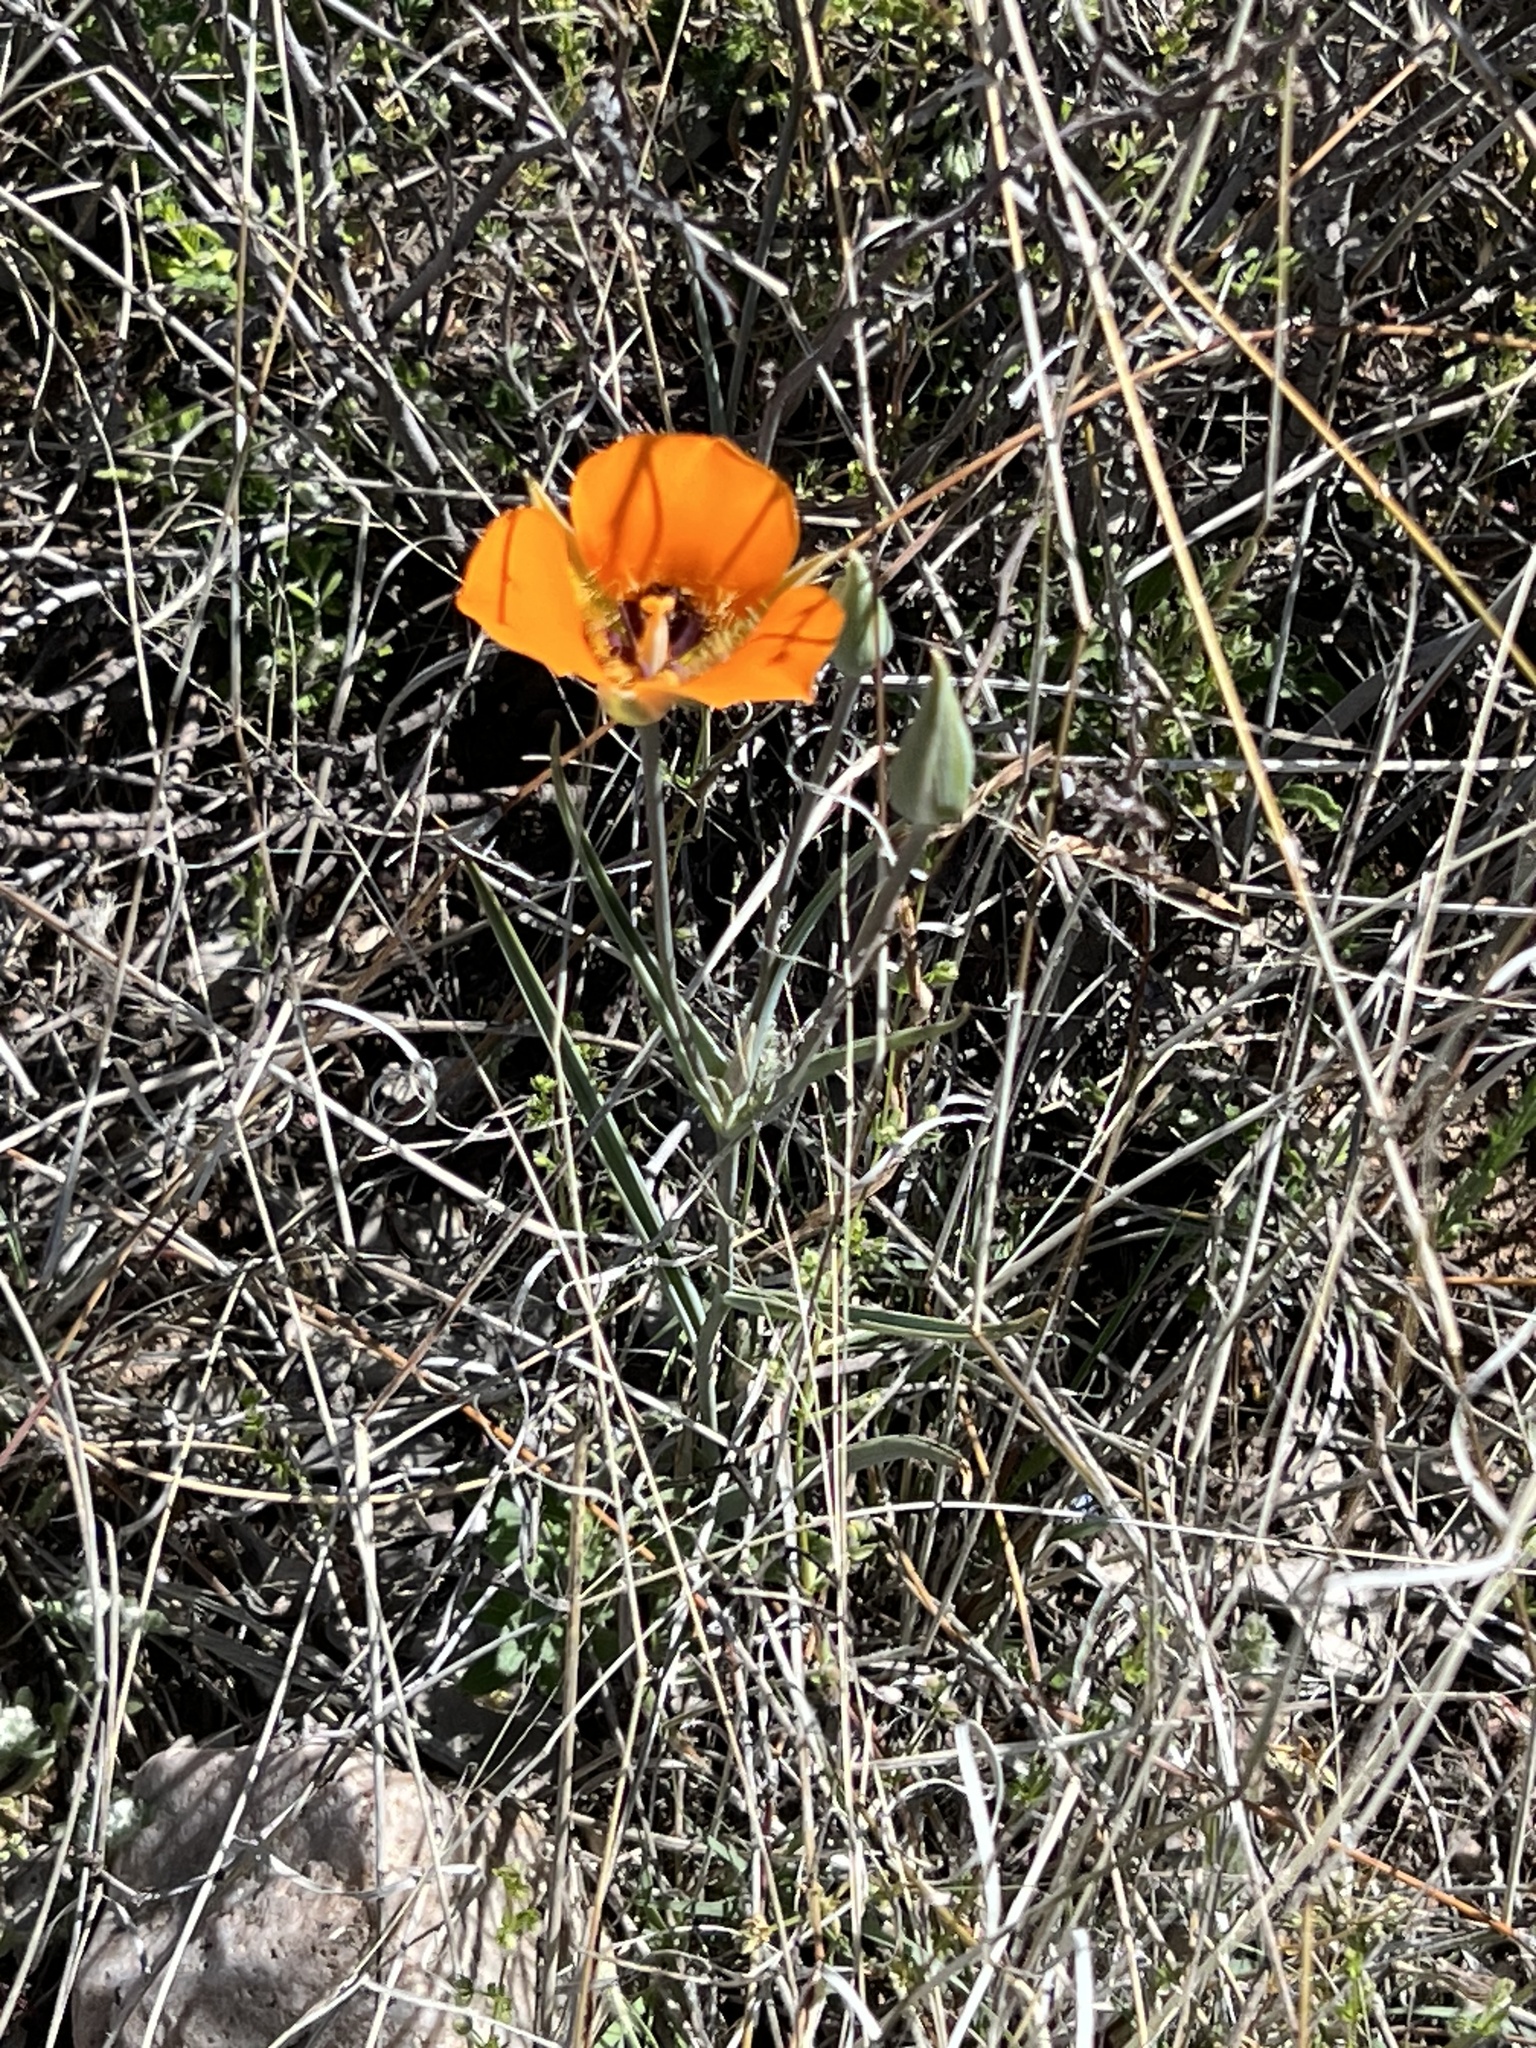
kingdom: Plantae
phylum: Tracheophyta
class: Liliopsida
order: Liliales
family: Liliaceae
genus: Calochortus
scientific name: Calochortus kennedyi
